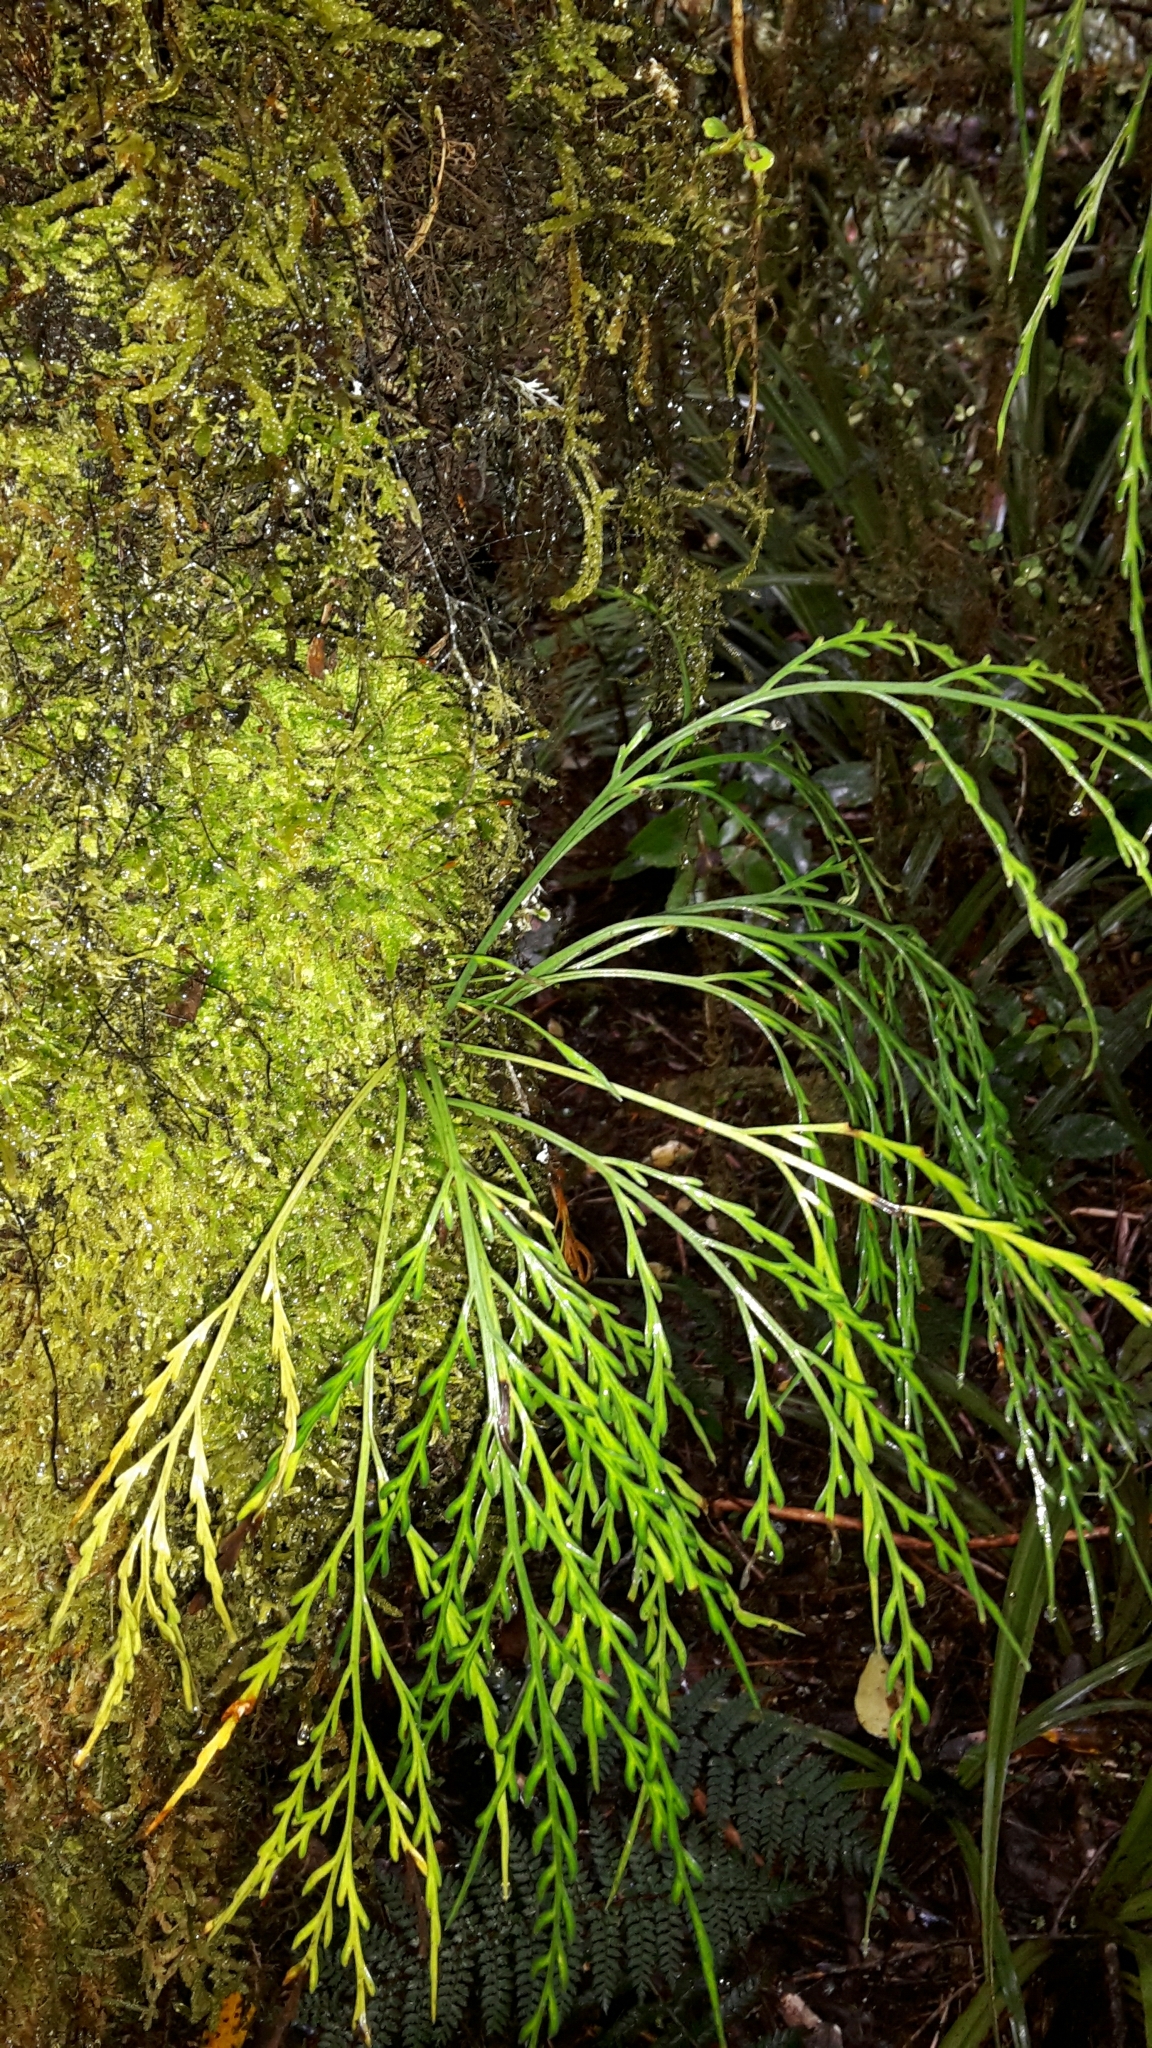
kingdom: Plantae
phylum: Tracheophyta
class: Polypodiopsida
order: Polypodiales
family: Aspleniaceae
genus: Asplenium
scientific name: Asplenium flaccidum
